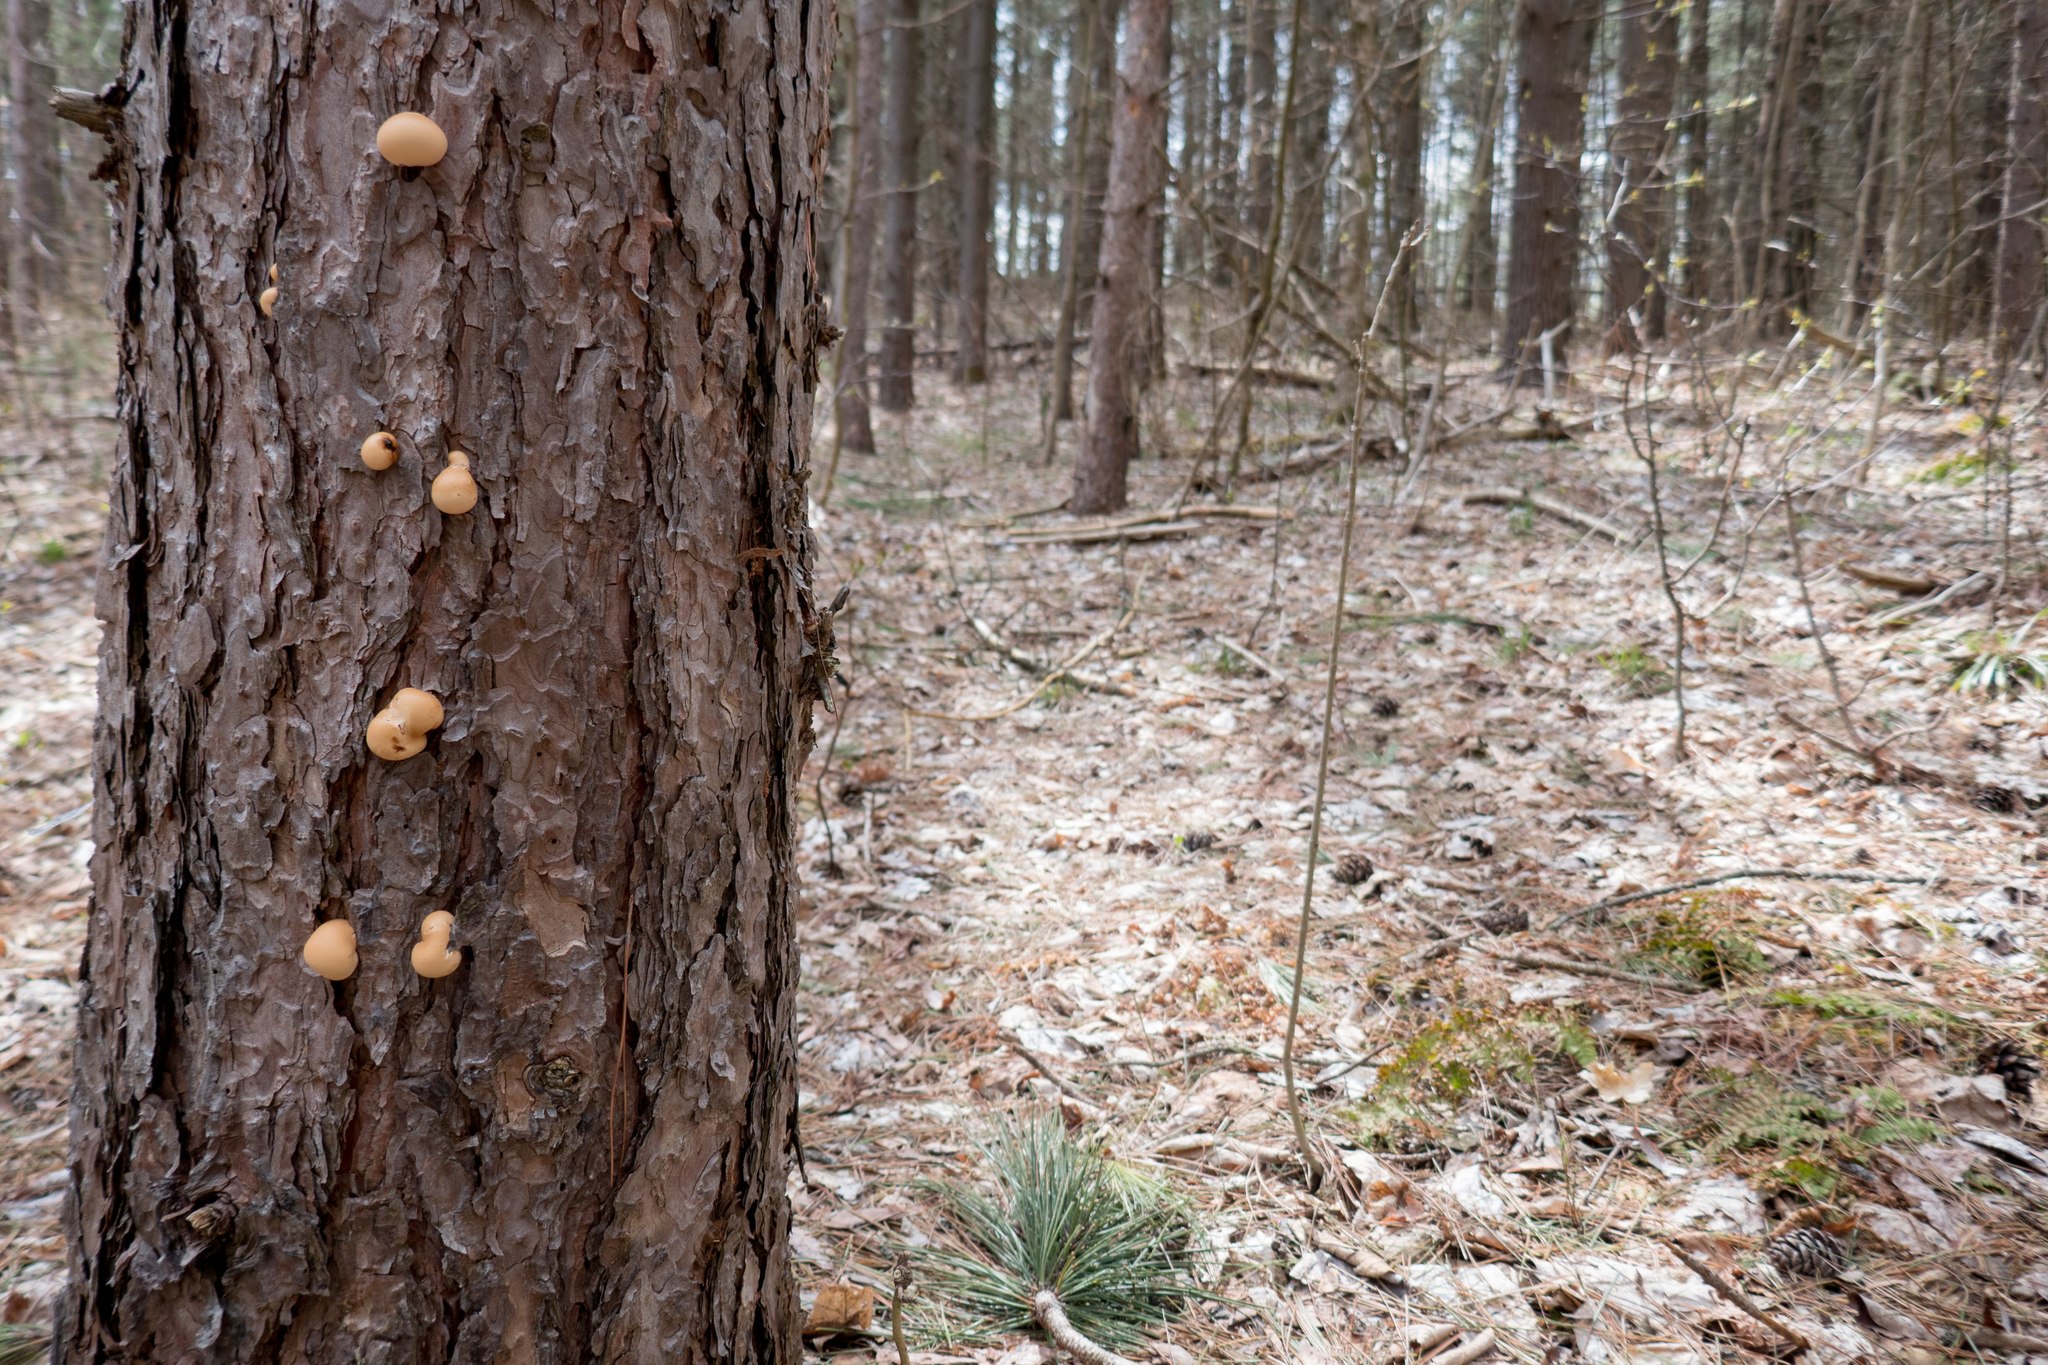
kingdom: Fungi
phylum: Basidiomycota
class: Agaricomycetes
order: Polyporales
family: Polyporaceae
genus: Cryptoporus
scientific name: Cryptoporus volvatus
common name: Veiled polypore
